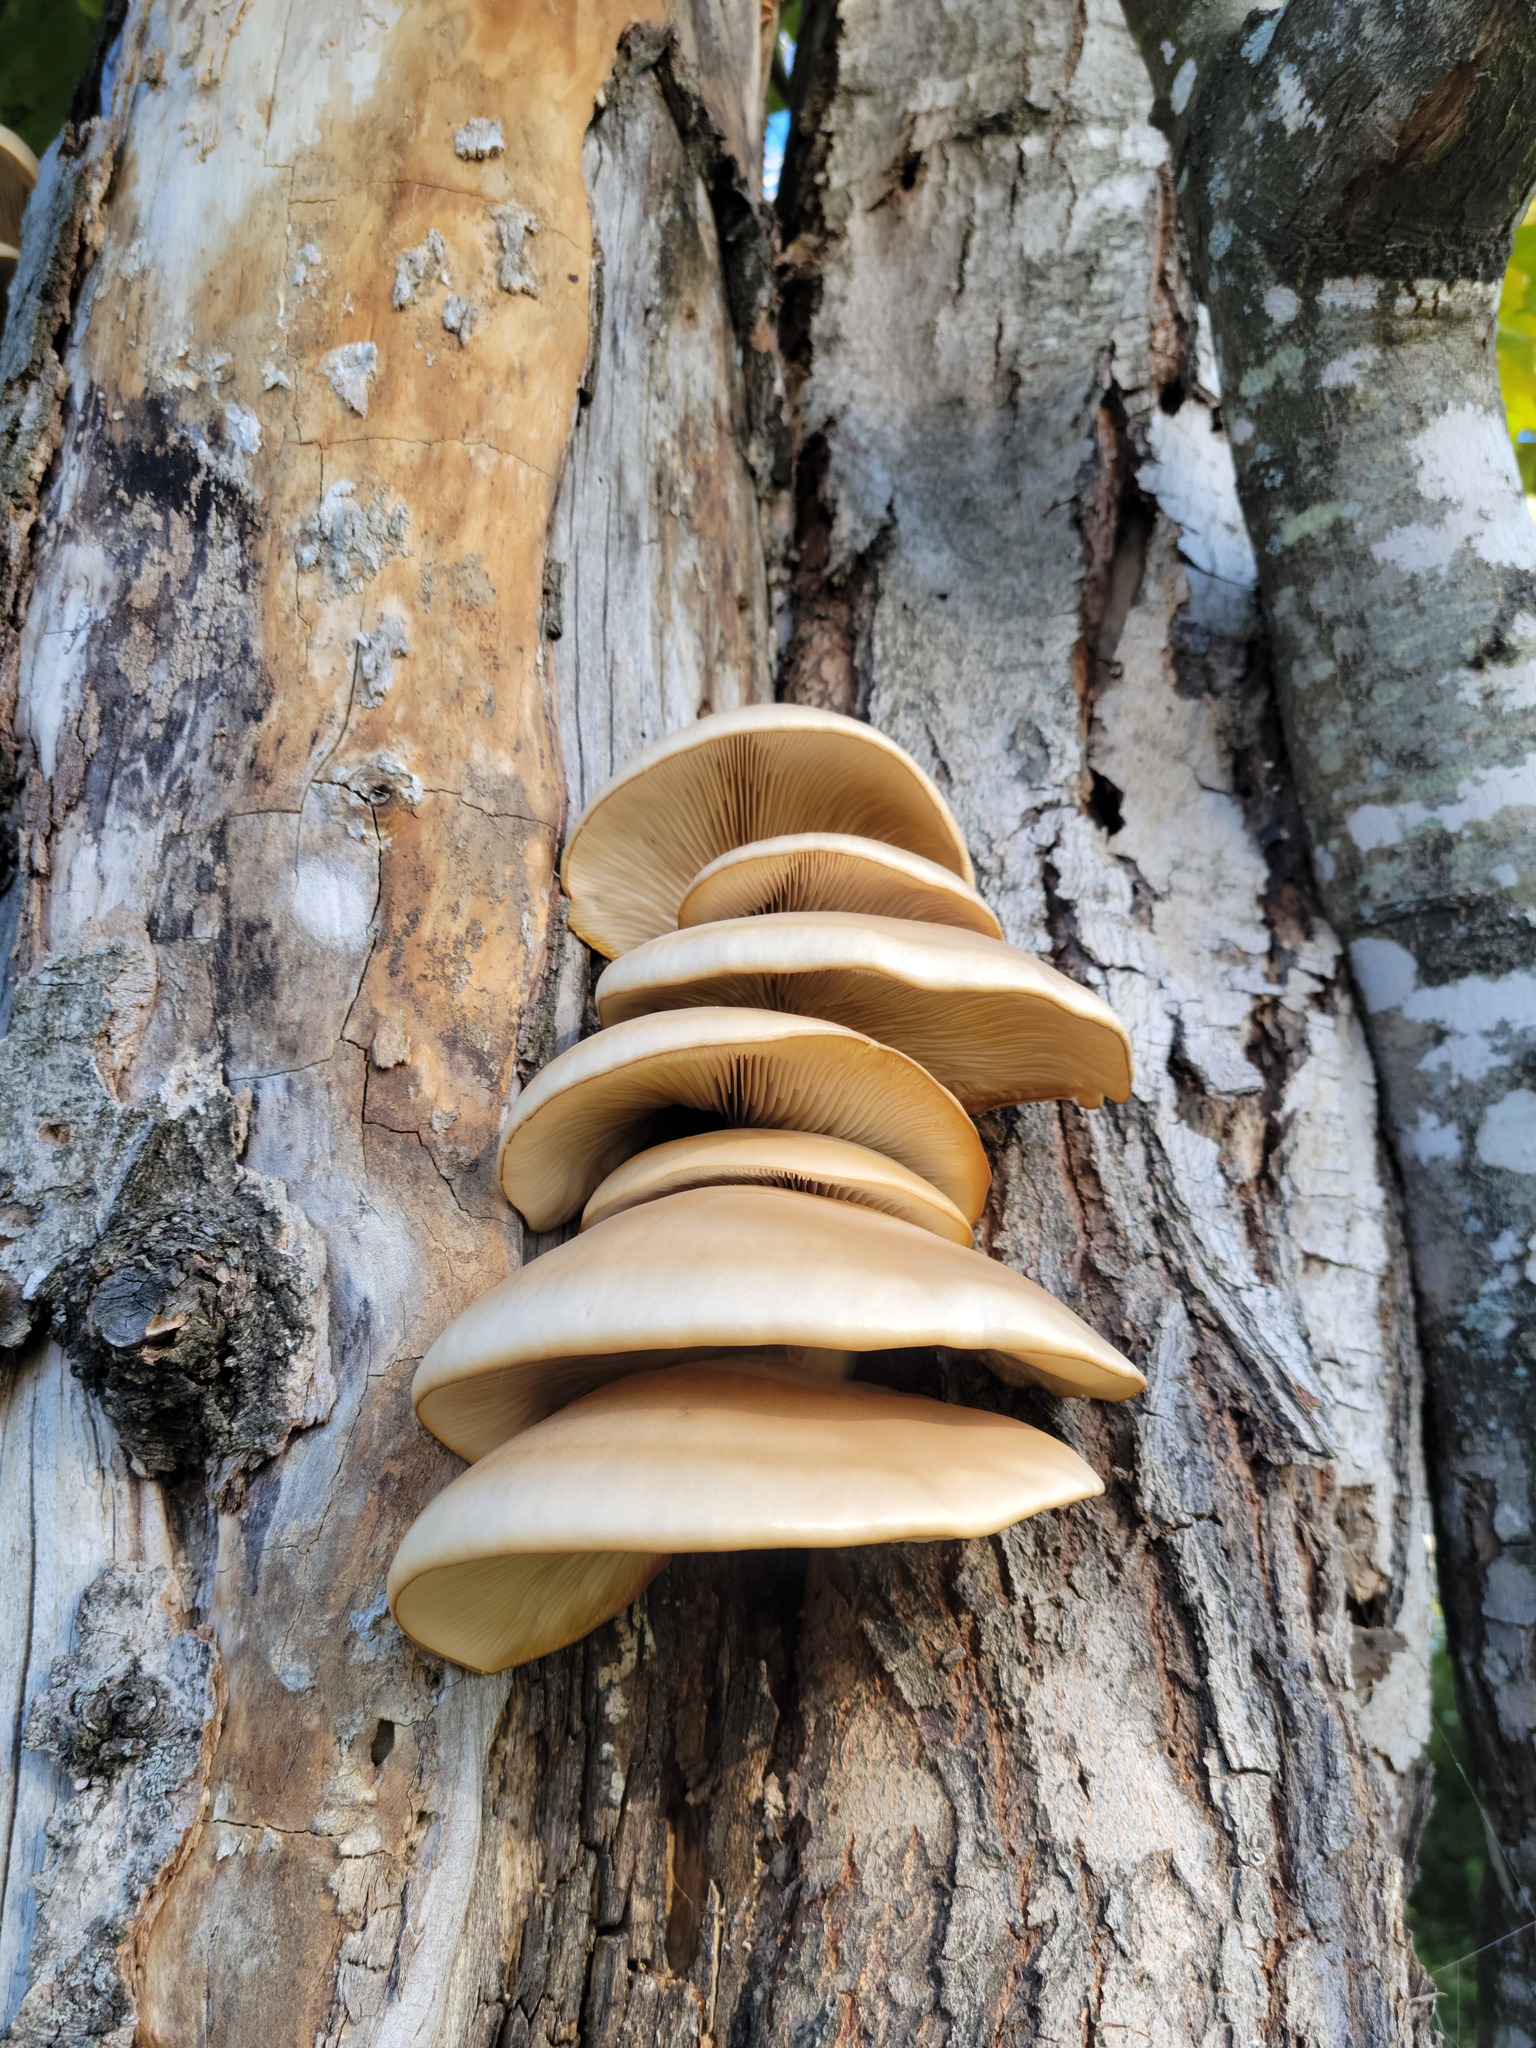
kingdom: Fungi
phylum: Basidiomycota
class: Agaricomycetes
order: Agaricales
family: Pleurotaceae
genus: Pleurotus
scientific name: Pleurotus populinus
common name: Aspen oyster mushroom
